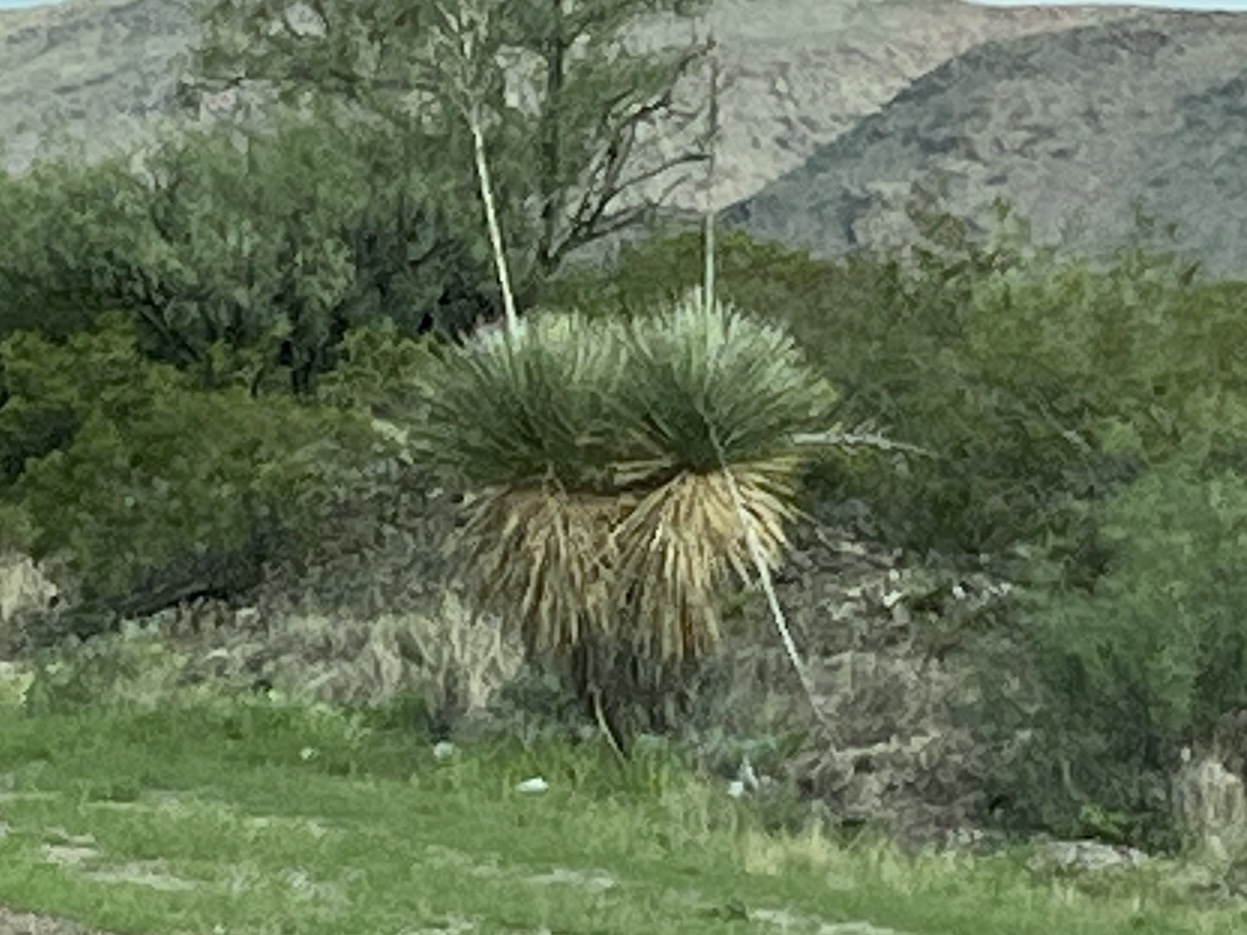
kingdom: Plantae
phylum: Tracheophyta
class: Liliopsida
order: Asparagales
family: Asparagaceae
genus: Yucca
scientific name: Yucca elata
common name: Palmella
